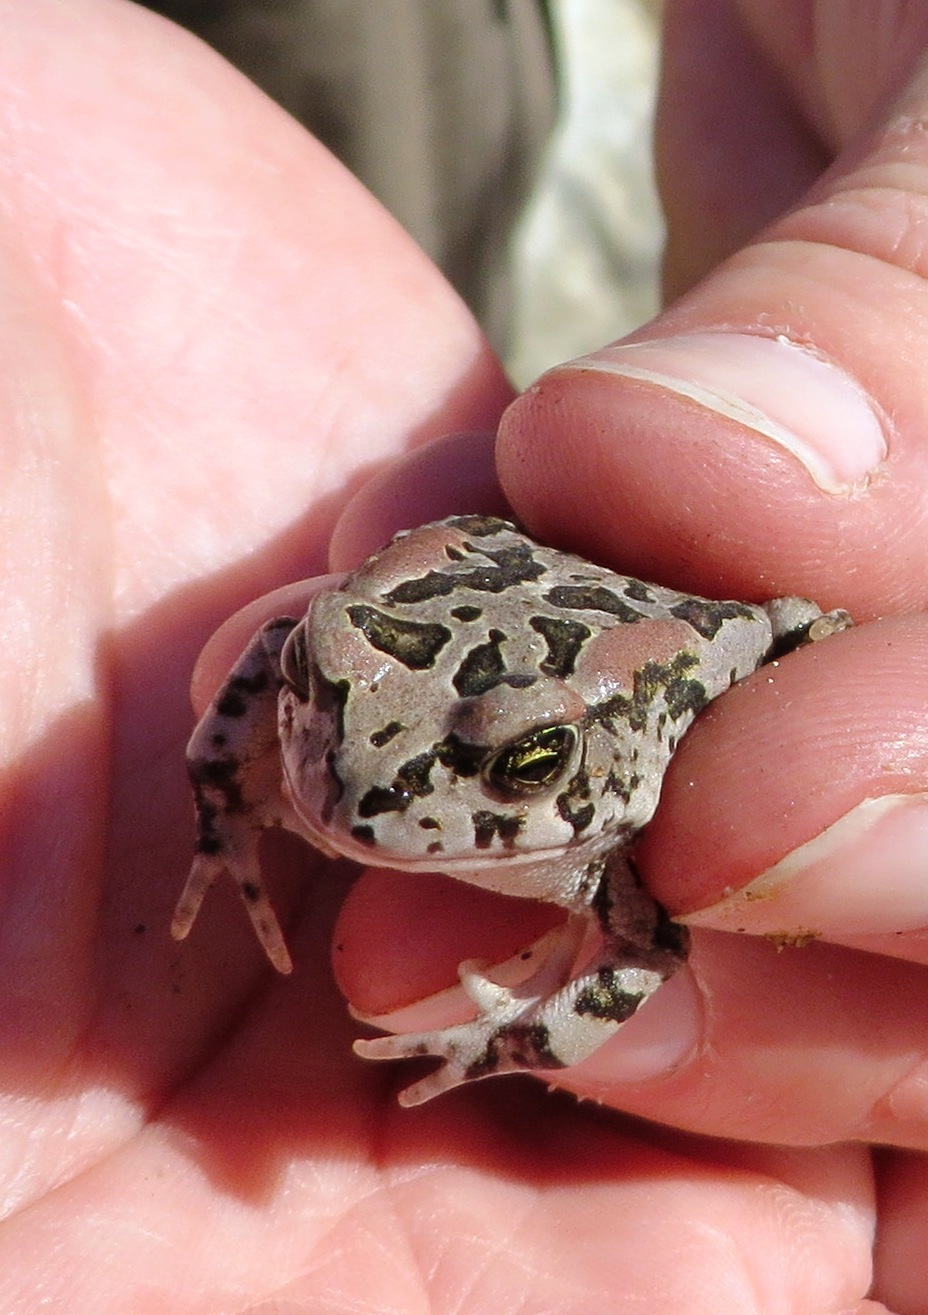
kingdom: Animalia
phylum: Chordata
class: Amphibia
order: Anura
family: Bufonidae
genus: Sclerophrys
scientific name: Sclerophrys capensis
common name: Ranger’s toad
